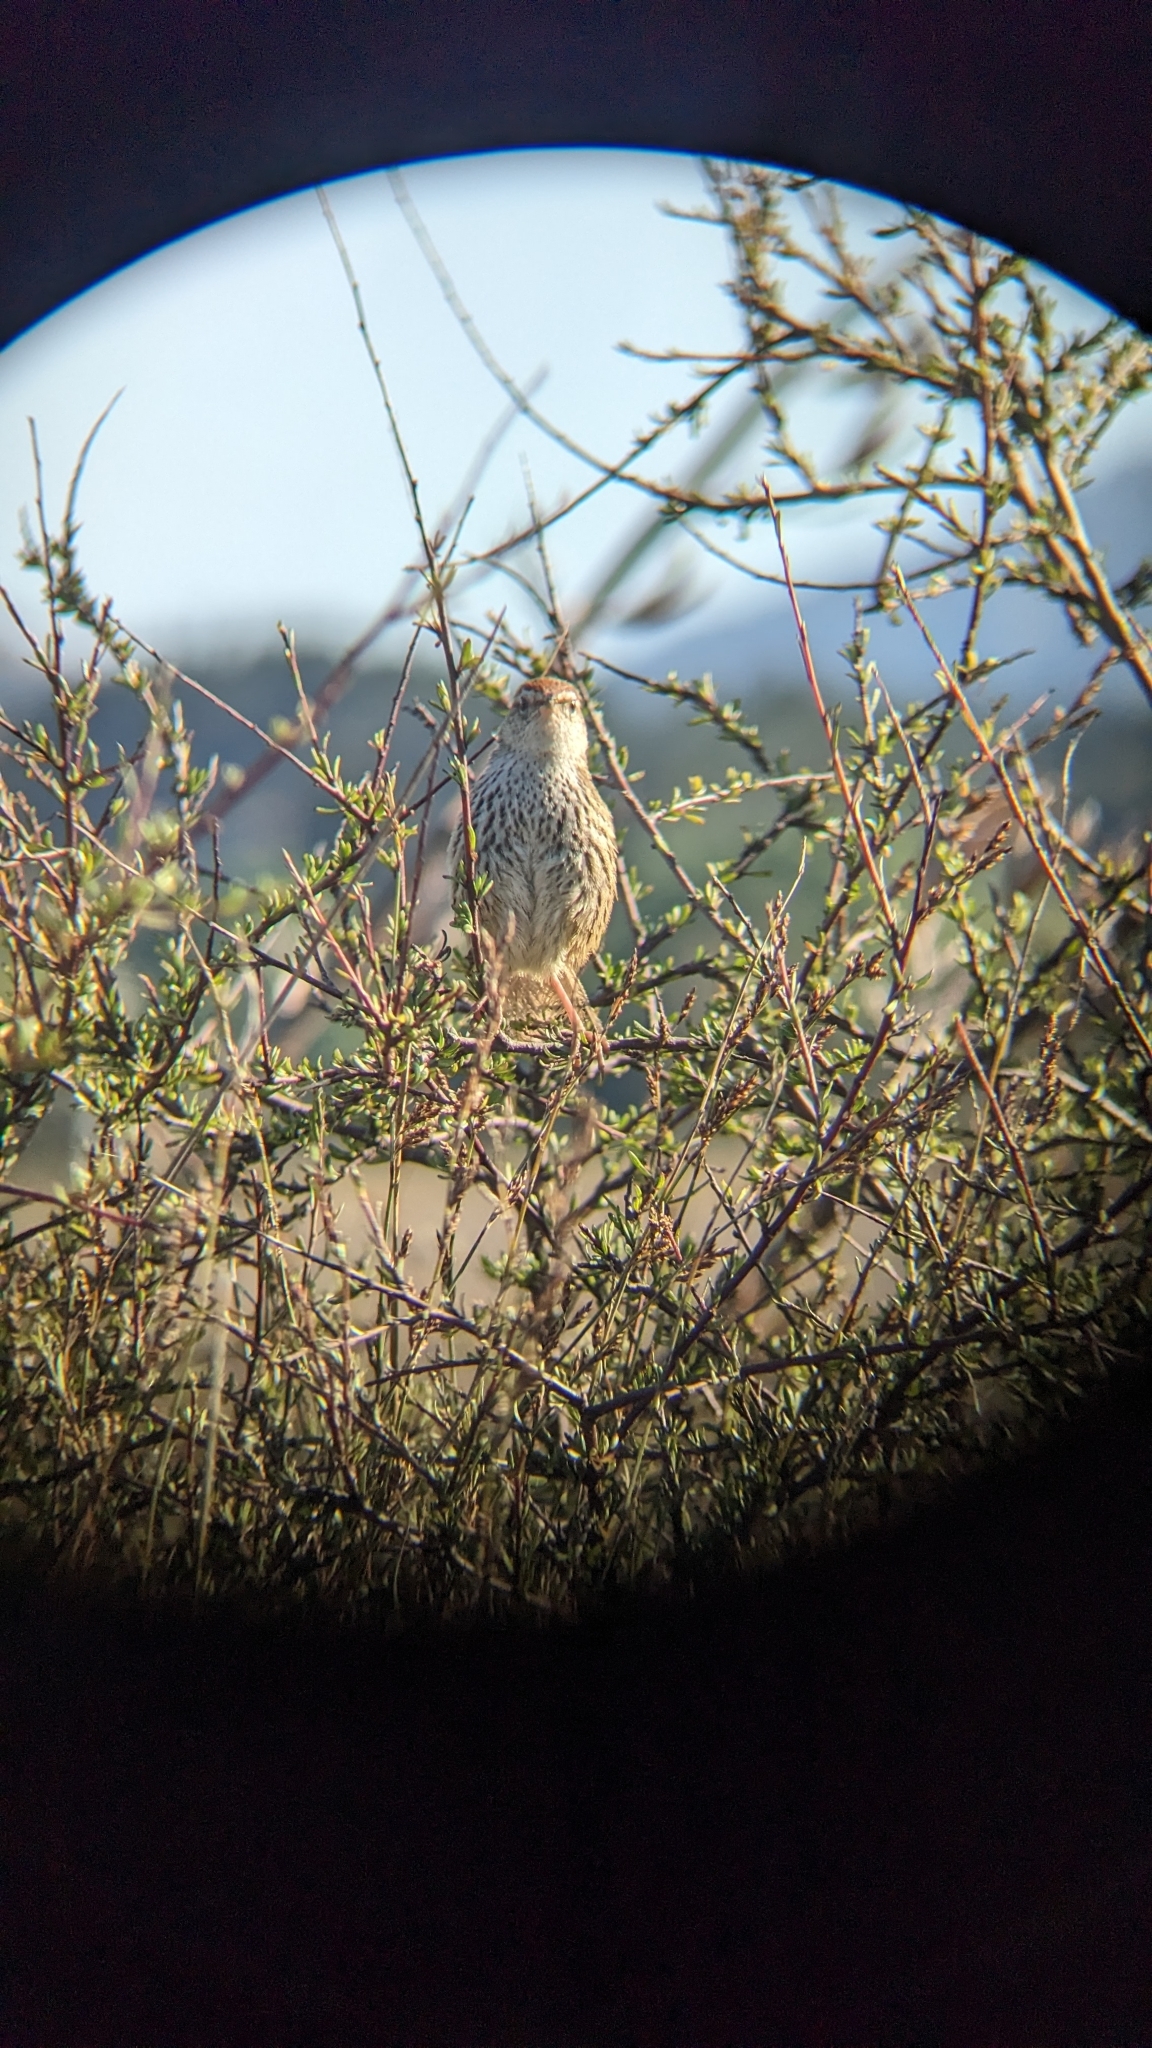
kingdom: Animalia
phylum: Chordata
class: Aves
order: Passeriformes
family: Locustellidae
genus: Megalurus
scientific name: Megalurus punctatus
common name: New zealand fernbird
